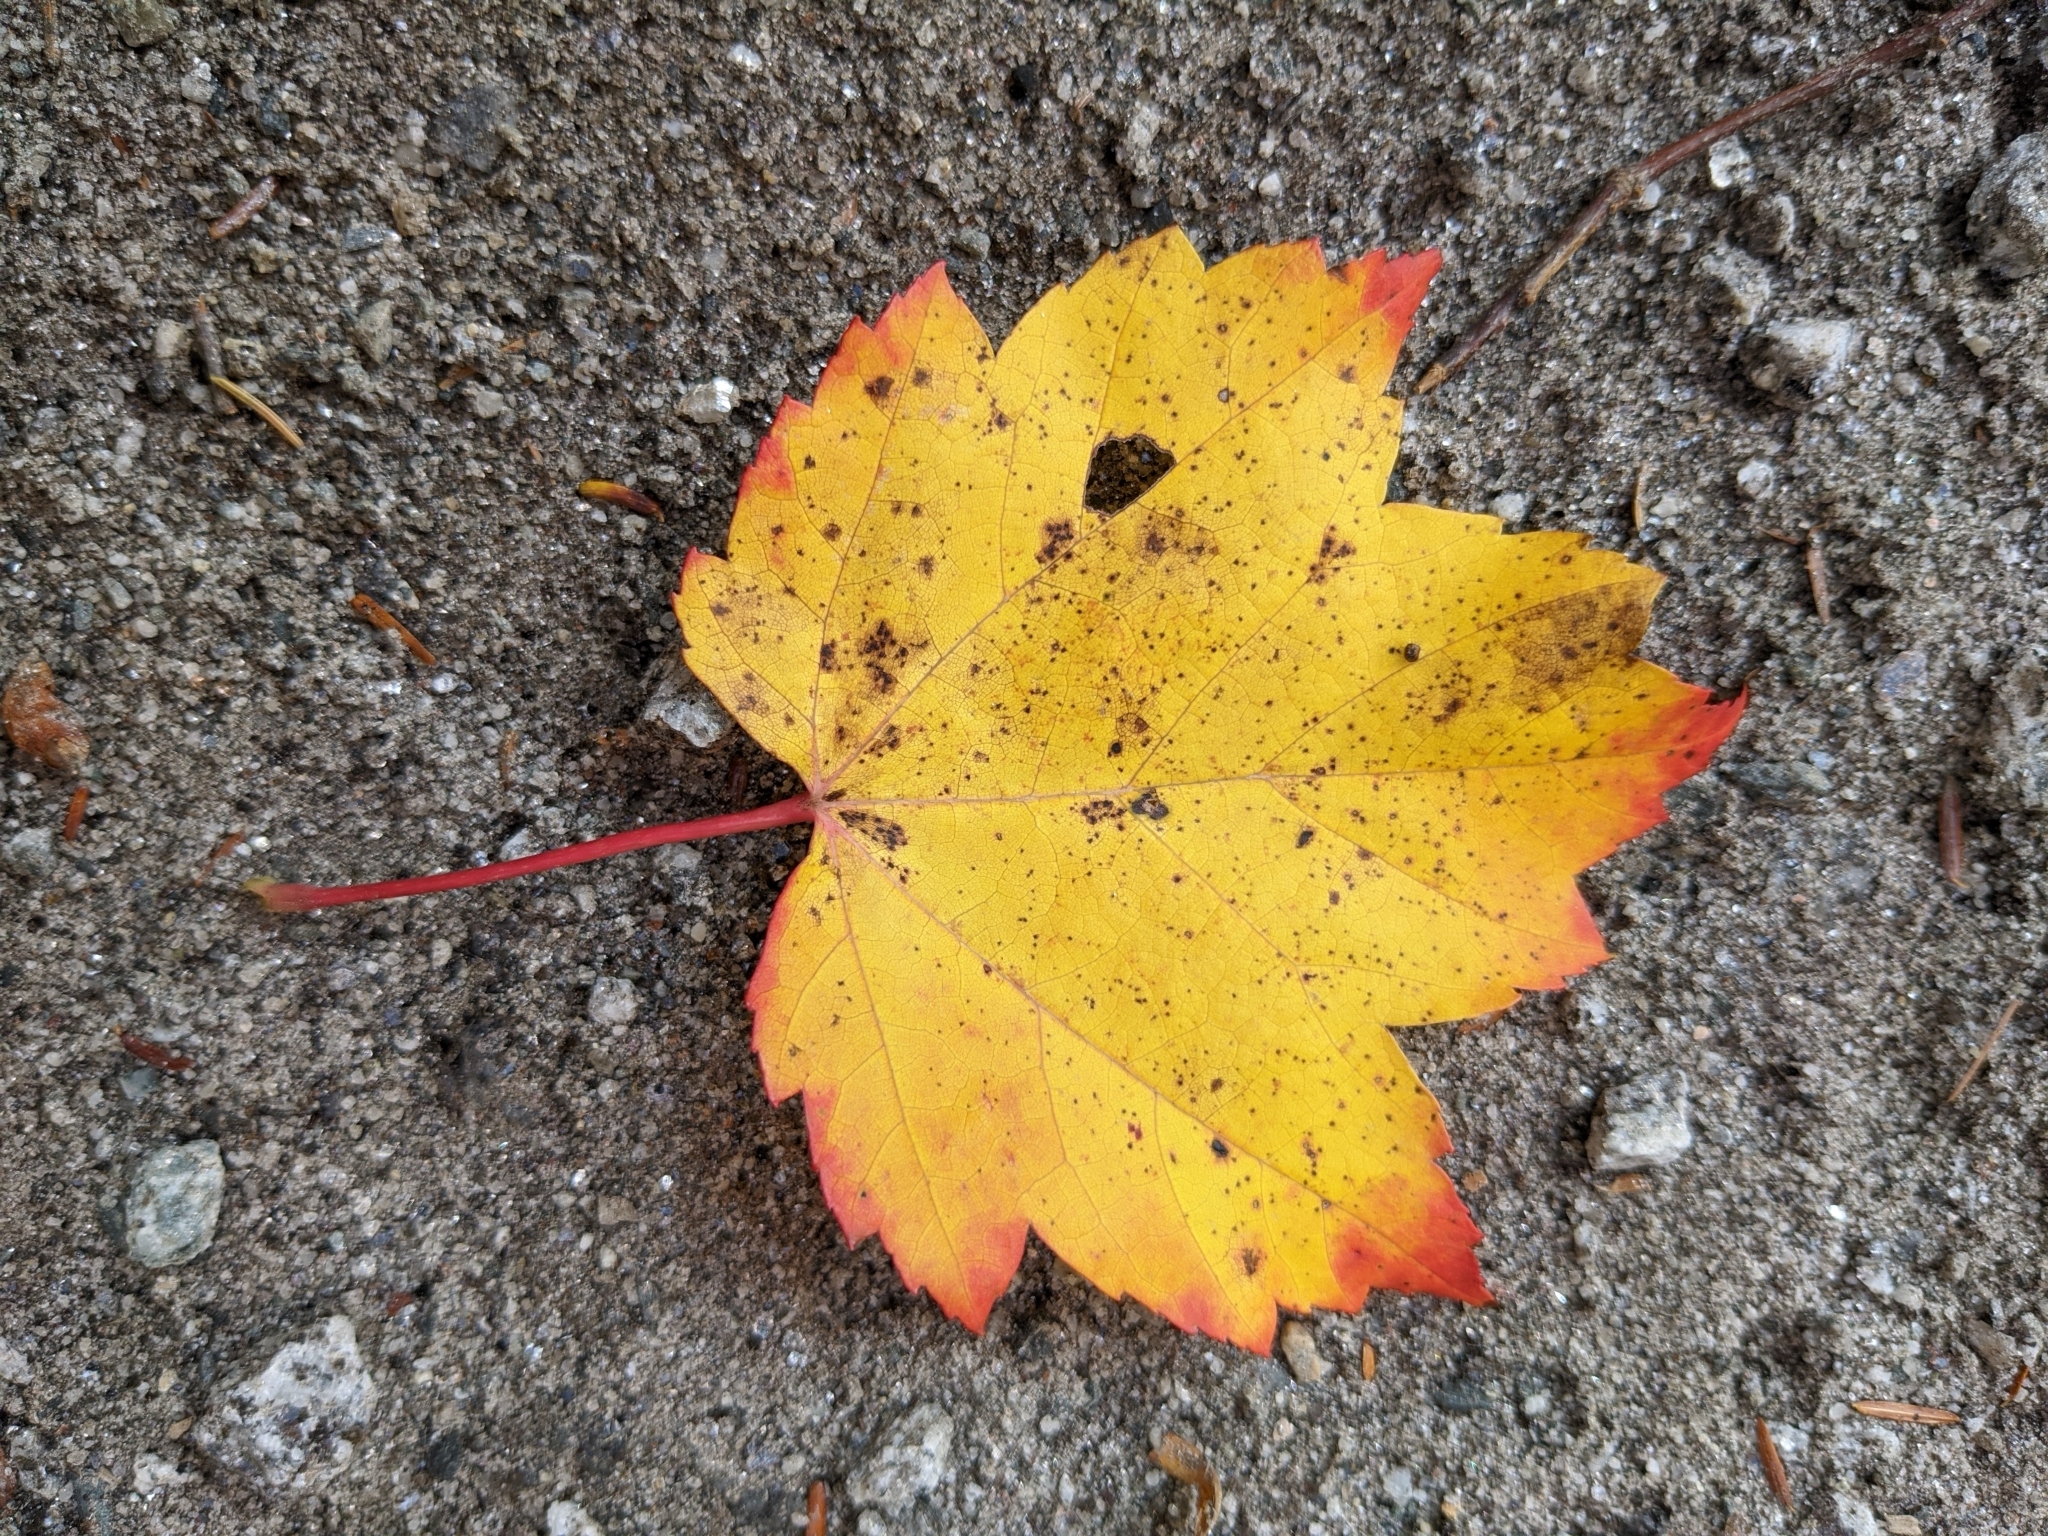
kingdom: Plantae
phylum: Tracheophyta
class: Magnoliopsida
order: Sapindales
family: Sapindaceae
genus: Acer
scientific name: Acer rubrum
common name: Red maple
